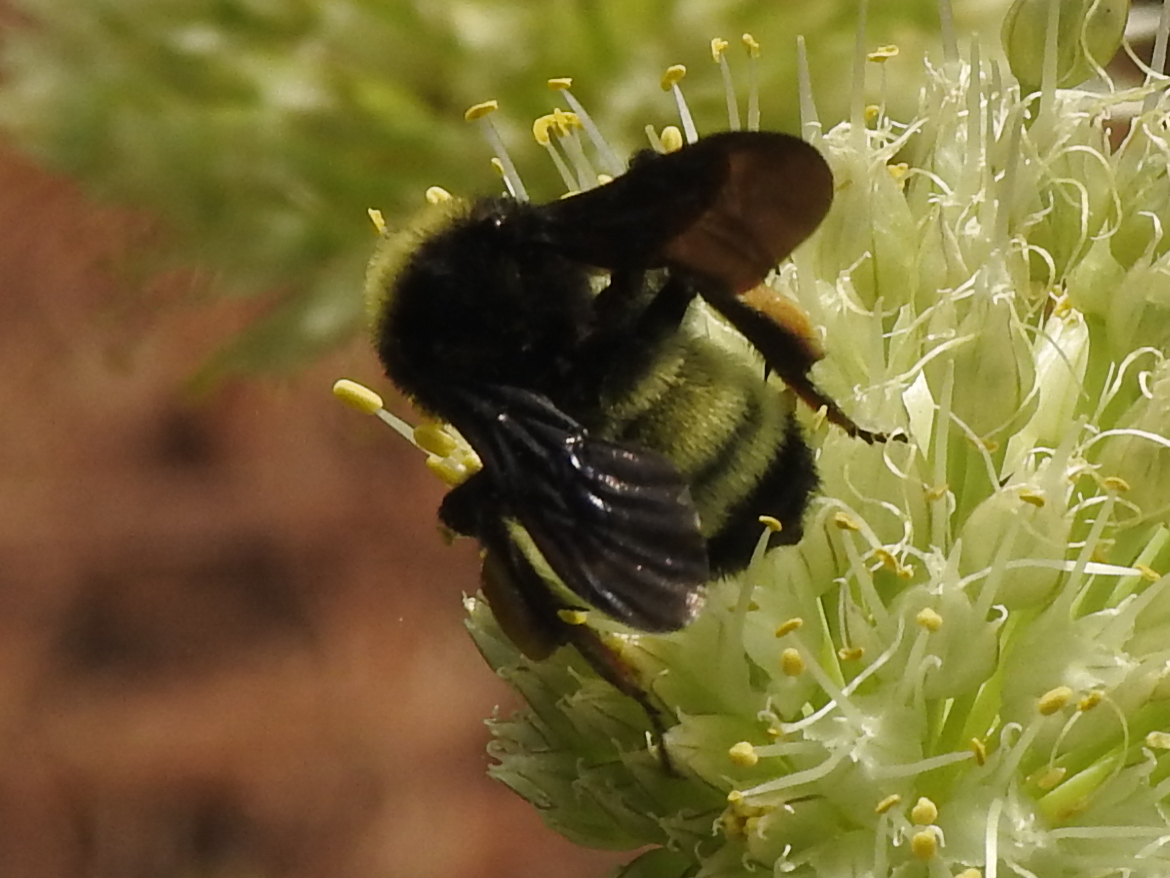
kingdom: Animalia
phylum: Arthropoda
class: Insecta
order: Hymenoptera
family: Apidae
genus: Bombus
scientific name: Bombus pensylvanicus
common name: Bumble bee
